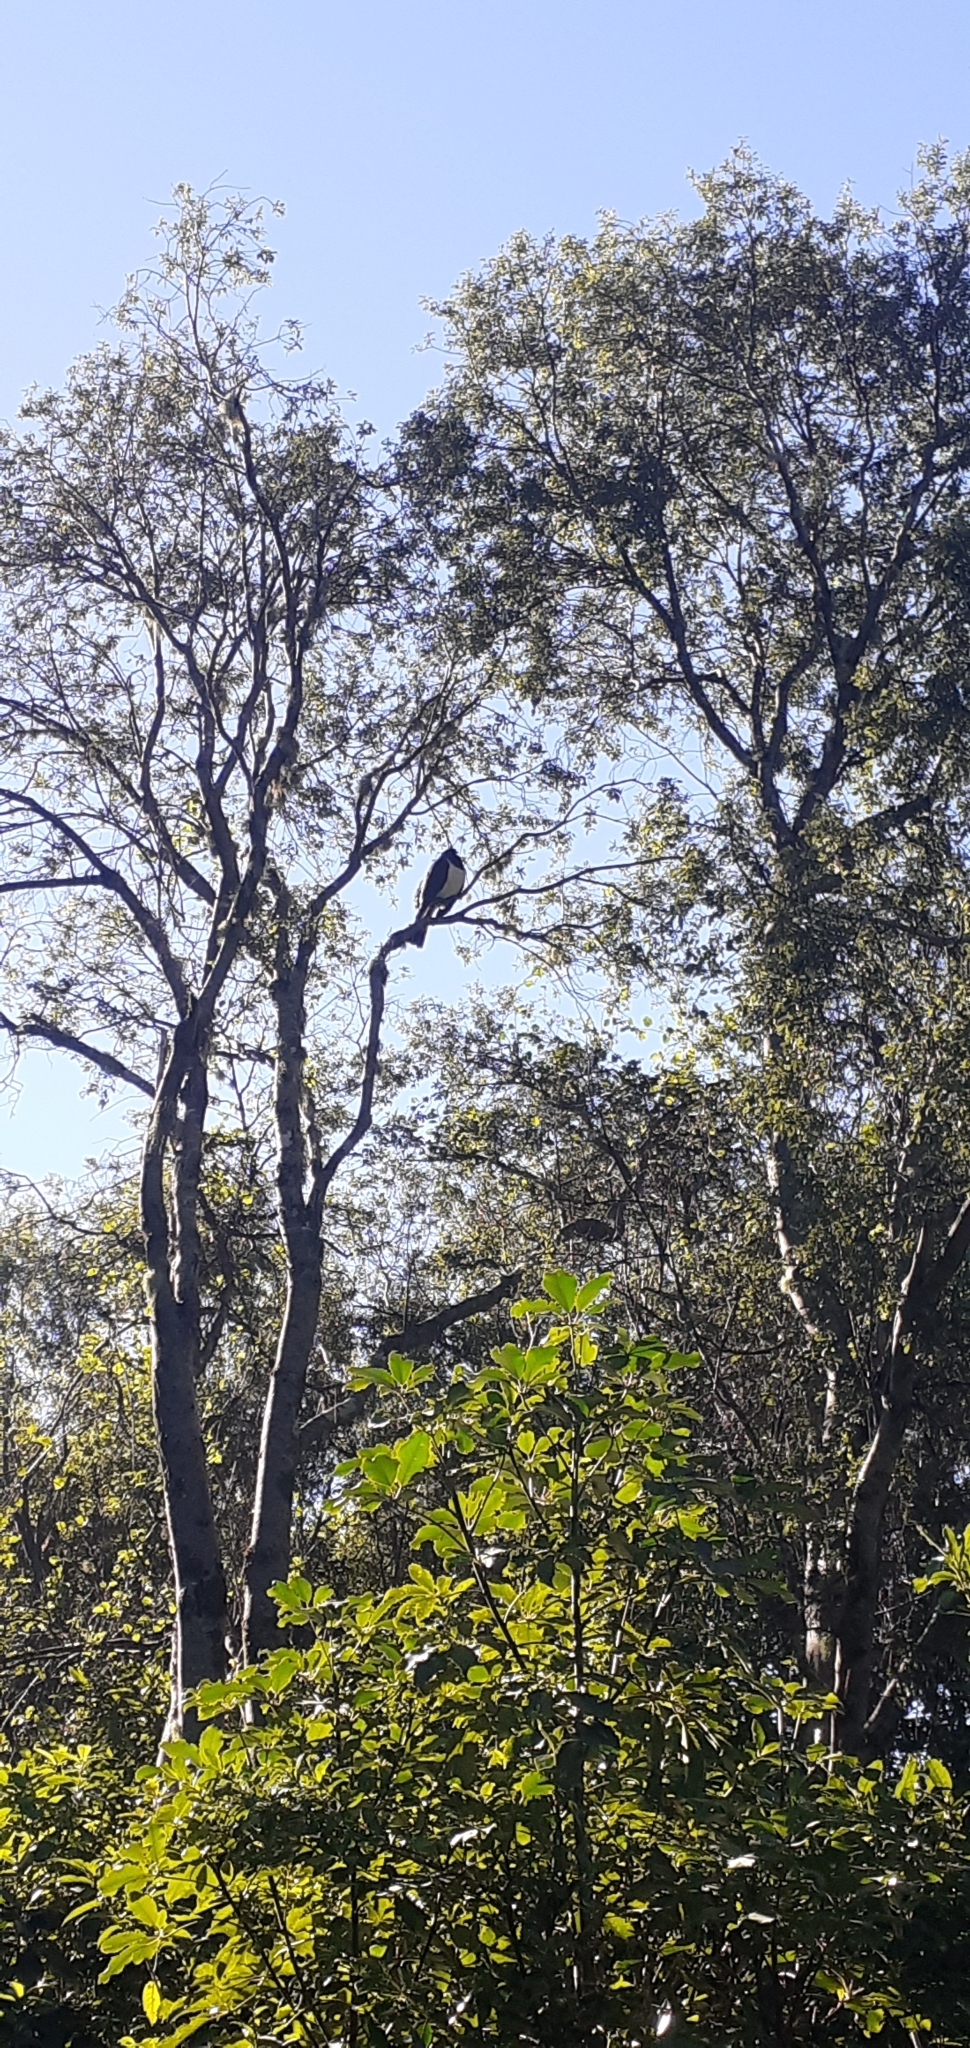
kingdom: Animalia
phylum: Chordata
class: Aves
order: Columbiformes
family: Columbidae
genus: Hemiphaga
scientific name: Hemiphaga novaeseelandiae
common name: New zealand pigeon
